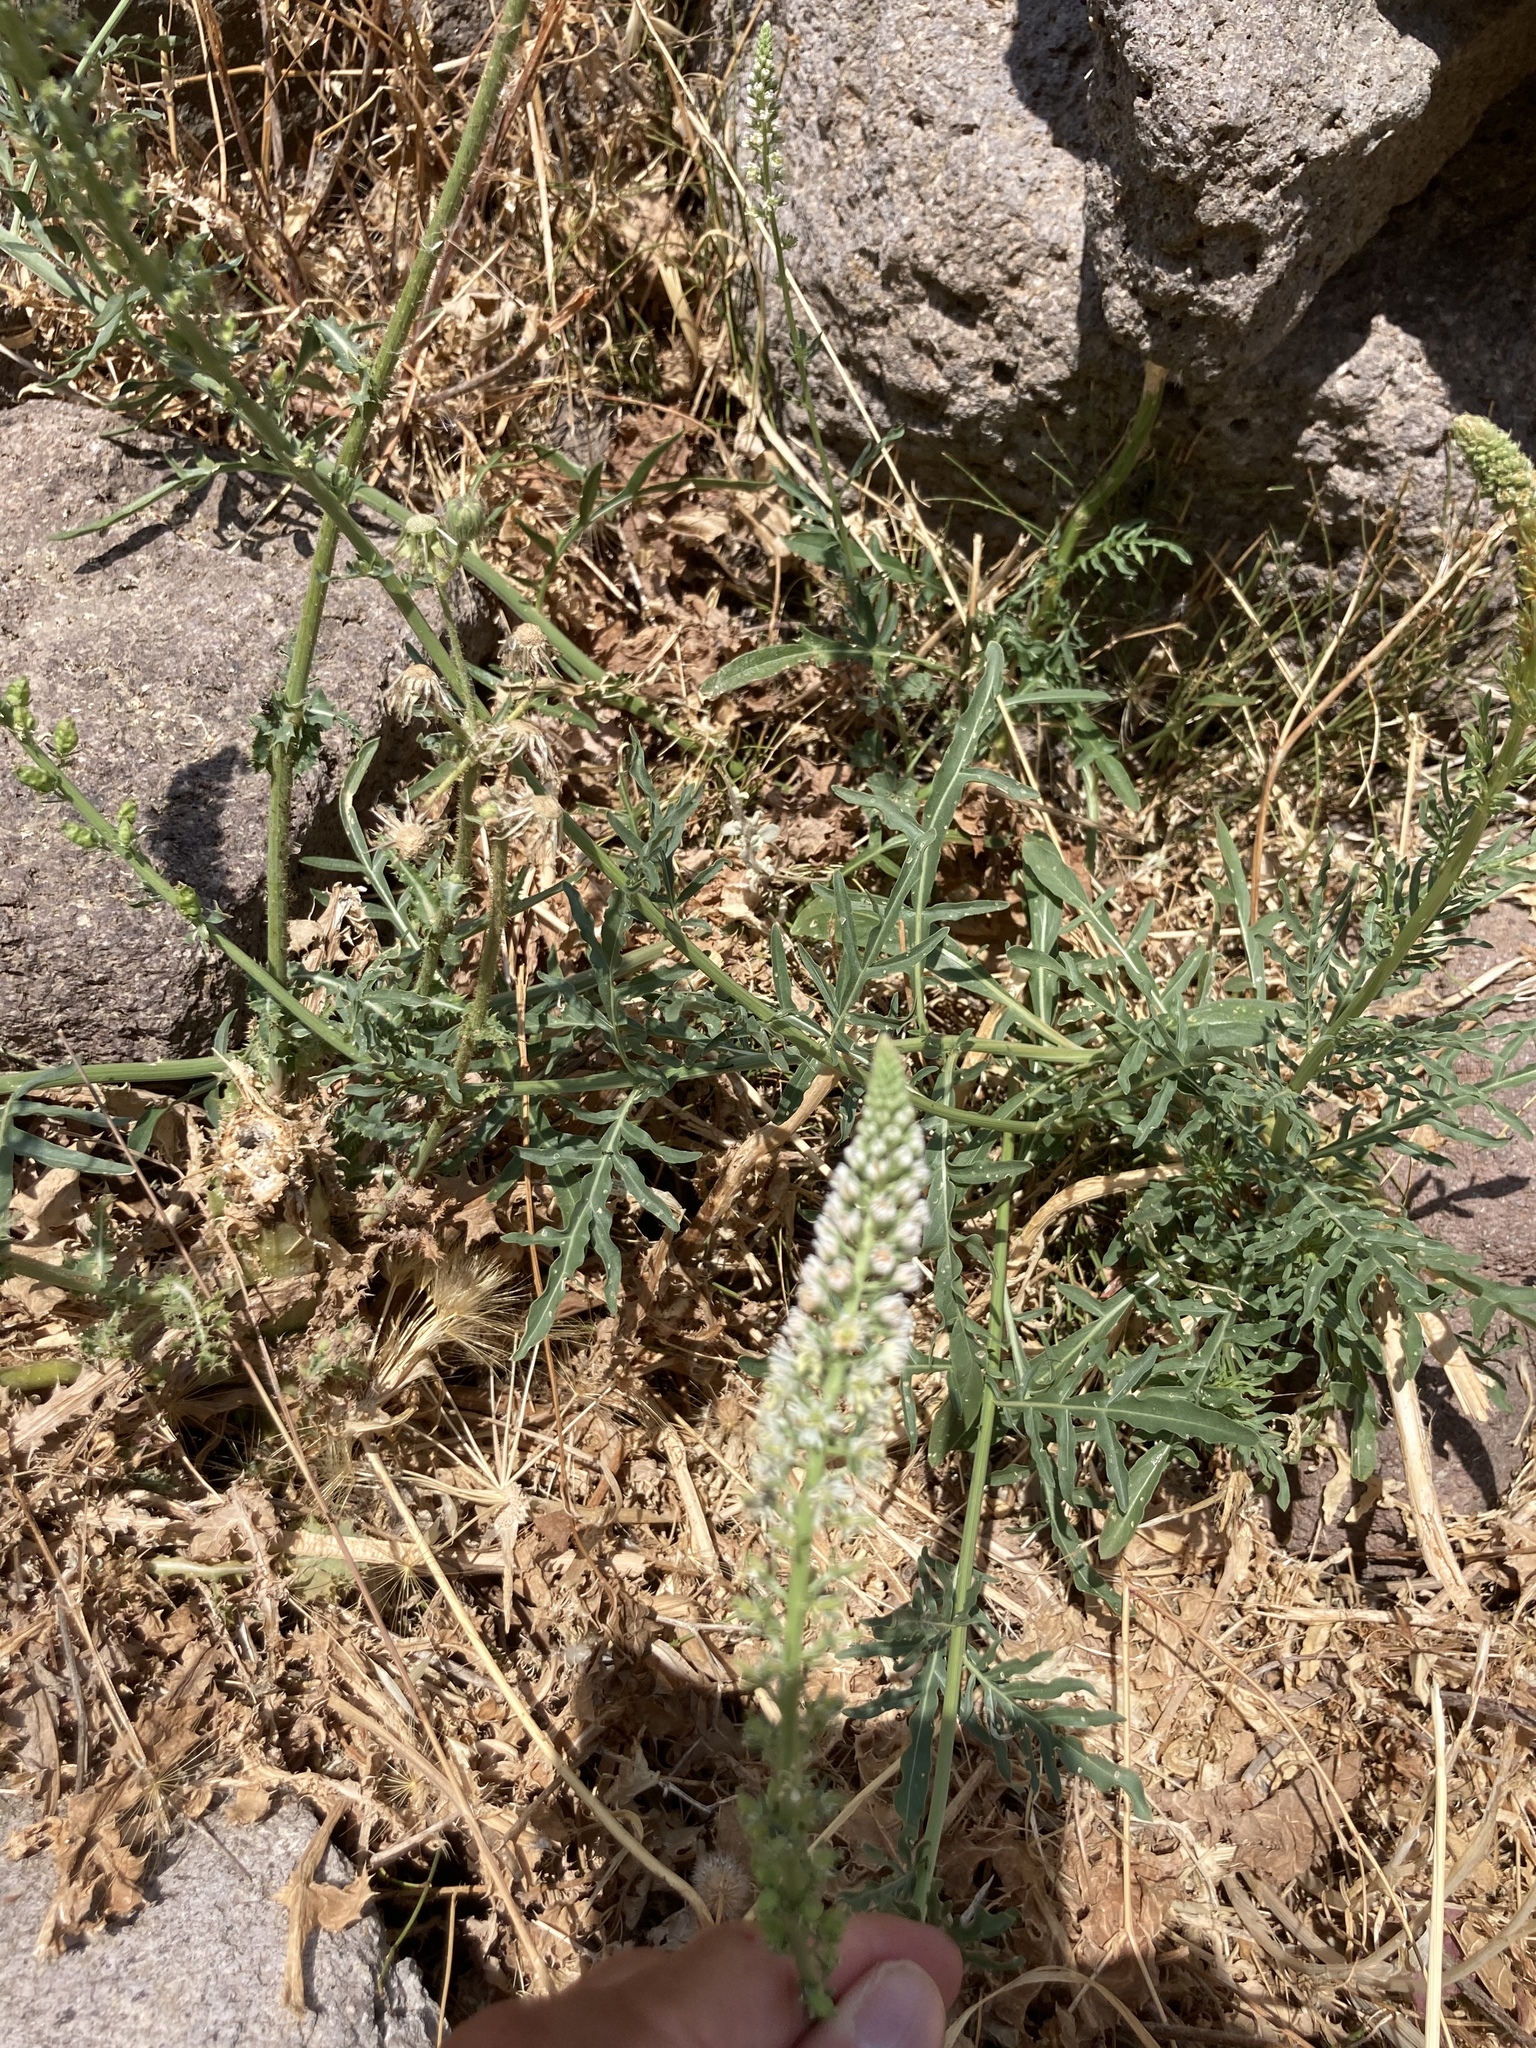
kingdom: Plantae
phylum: Tracheophyta
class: Magnoliopsida
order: Brassicales
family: Resedaceae
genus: Reseda
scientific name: Reseda alba
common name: White mignonette
